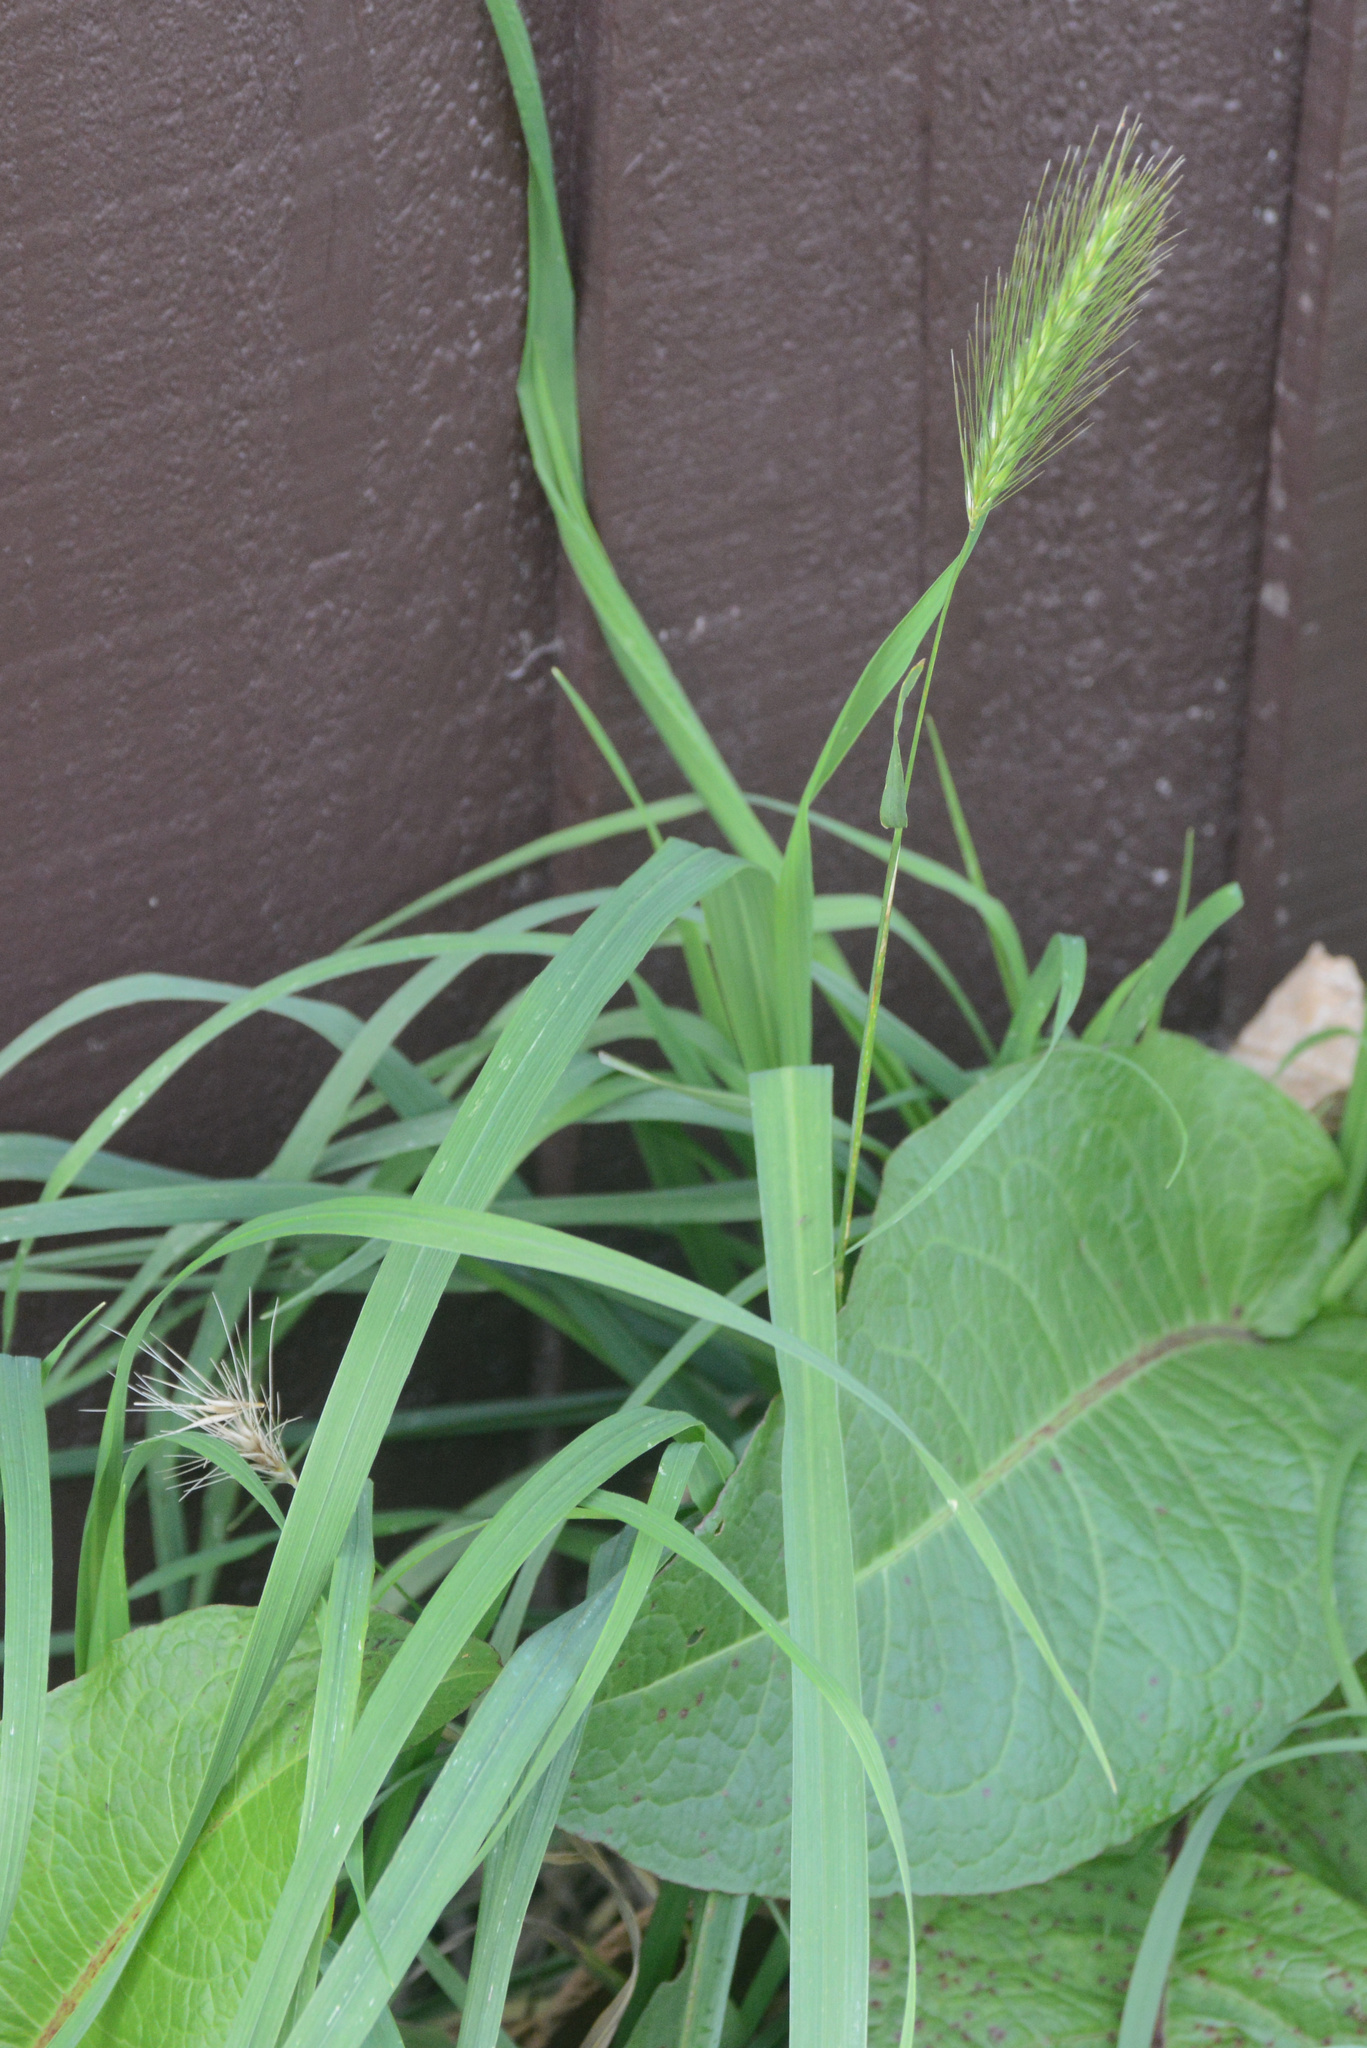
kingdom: Plantae
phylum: Tracheophyta
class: Liliopsida
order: Poales
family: Poaceae
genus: Hordeum
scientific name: Hordeum murinum
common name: Wall barley
